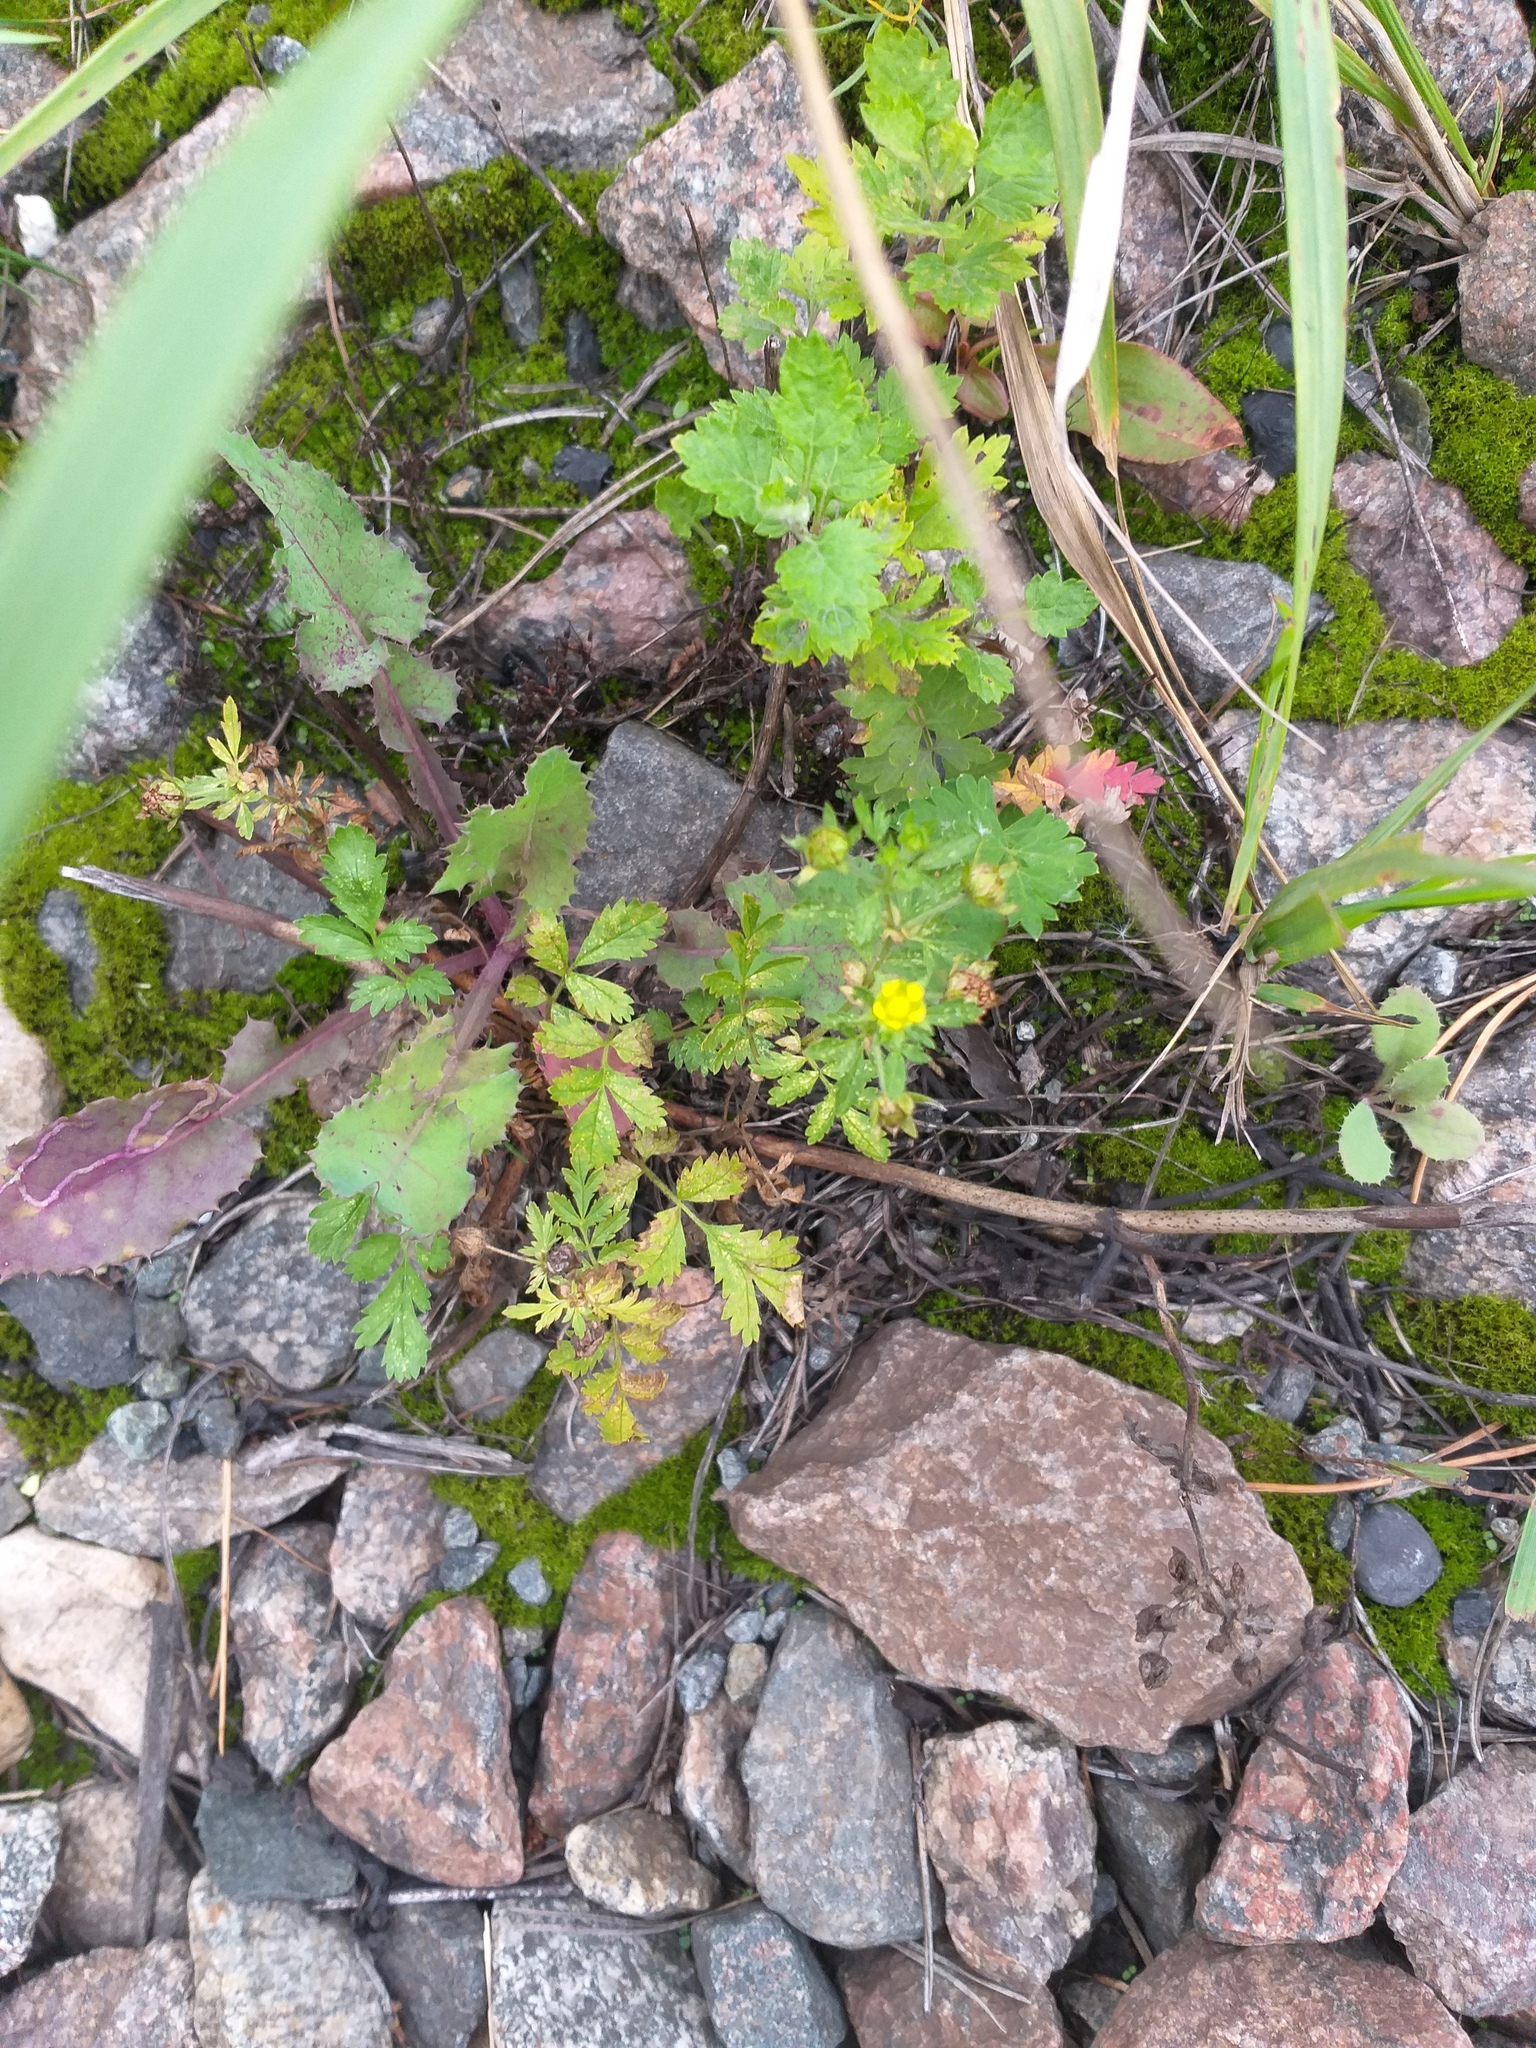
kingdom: Plantae
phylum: Tracheophyta
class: Magnoliopsida
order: Rosales
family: Rosaceae
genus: Potentilla
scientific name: Potentilla supina
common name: Prostrate cinquefoil
